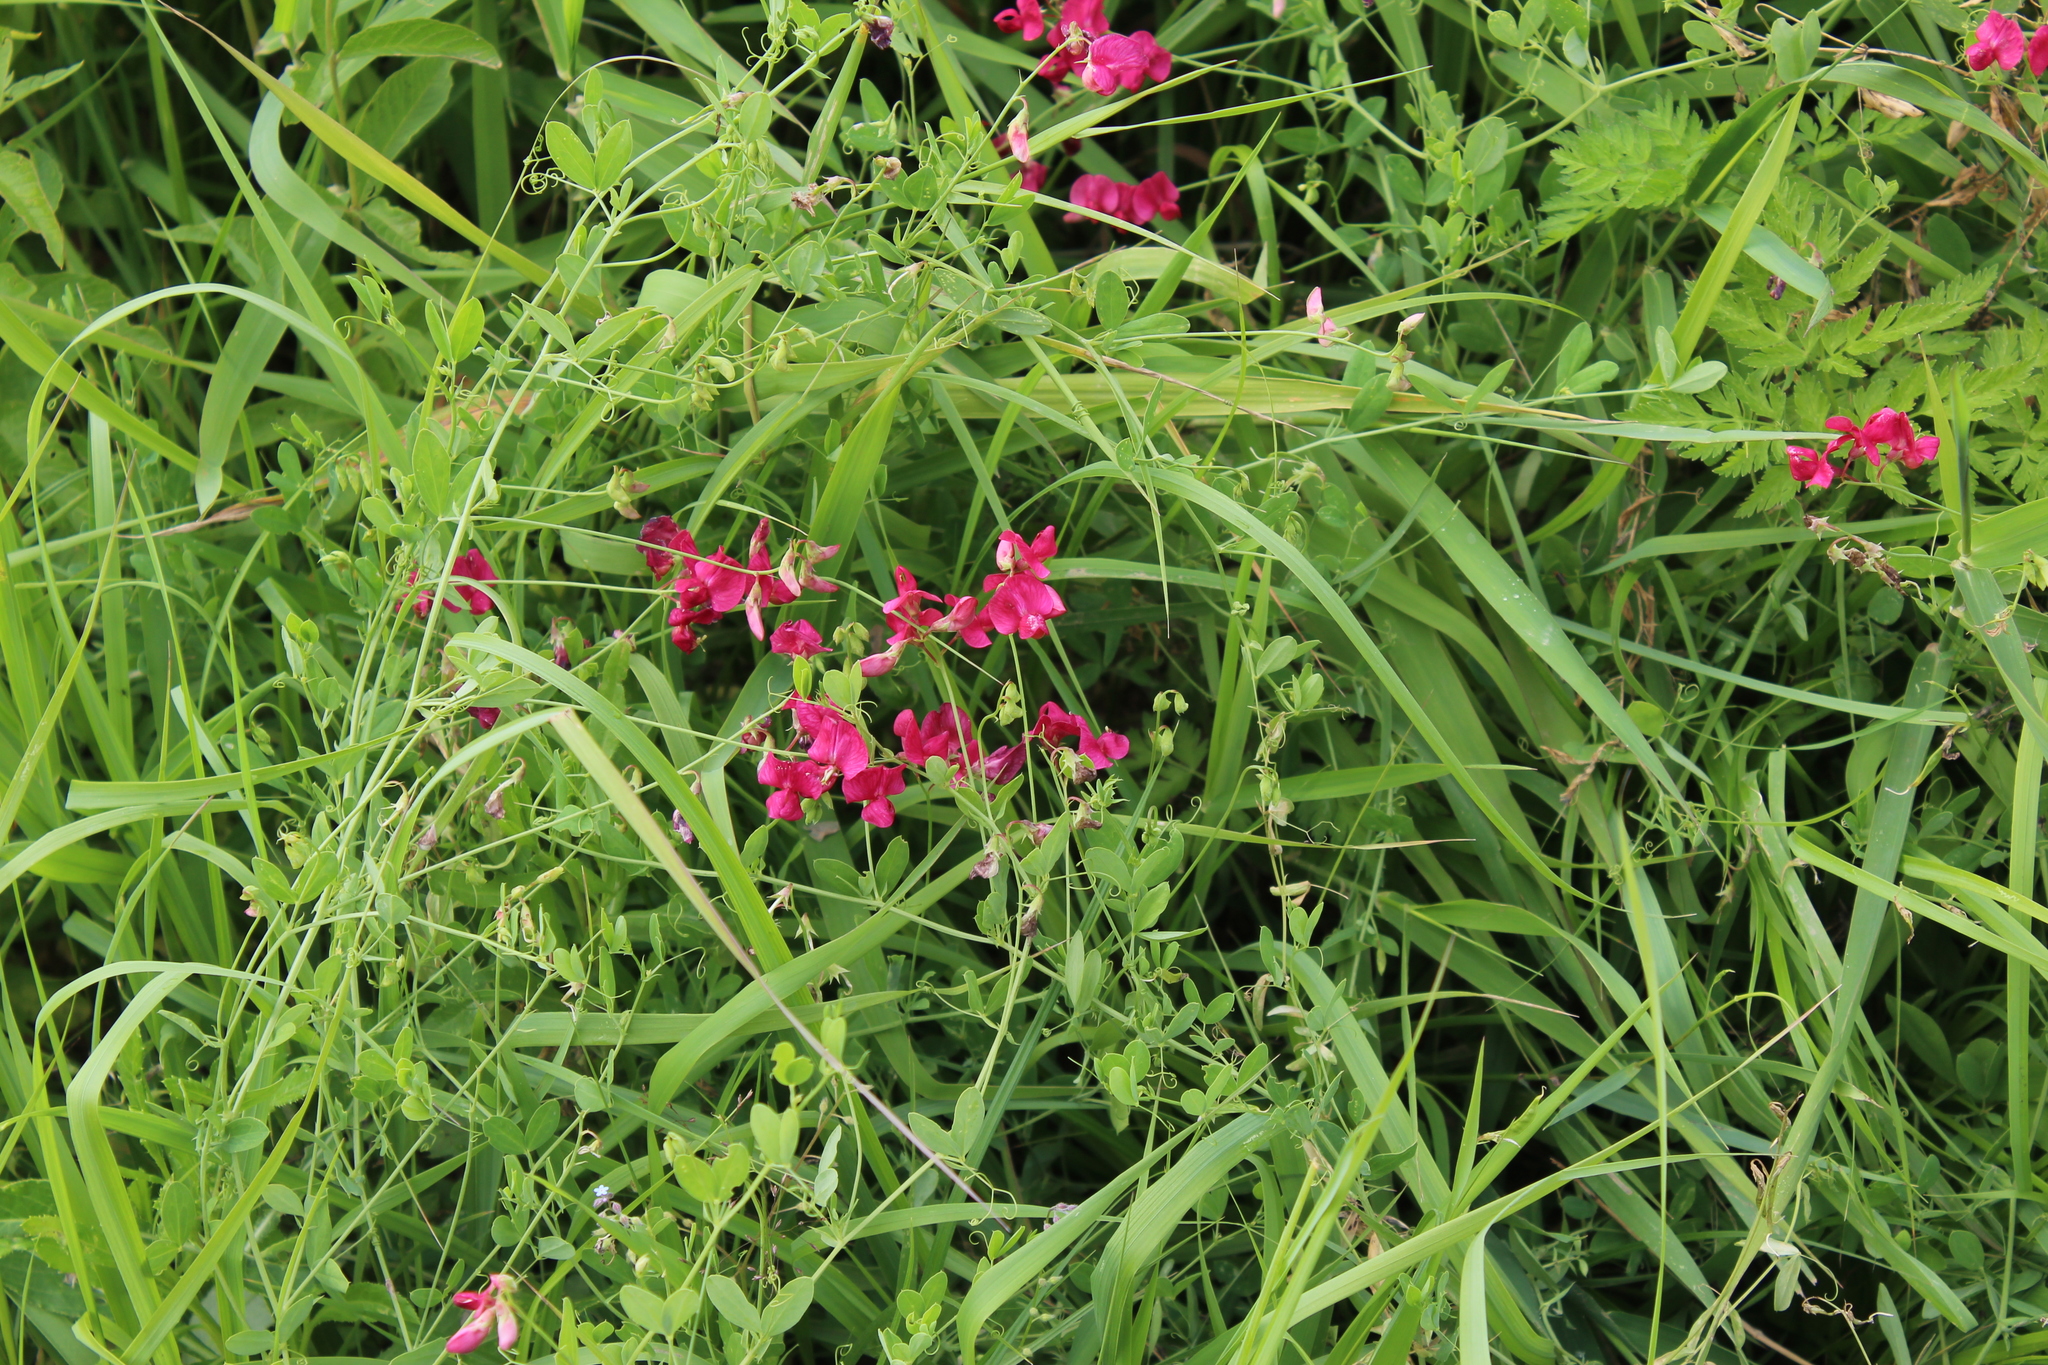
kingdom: Plantae
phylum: Tracheophyta
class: Magnoliopsida
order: Fabales
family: Fabaceae
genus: Lathyrus
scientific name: Lathyrus tuberosus
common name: Tuberous pea
